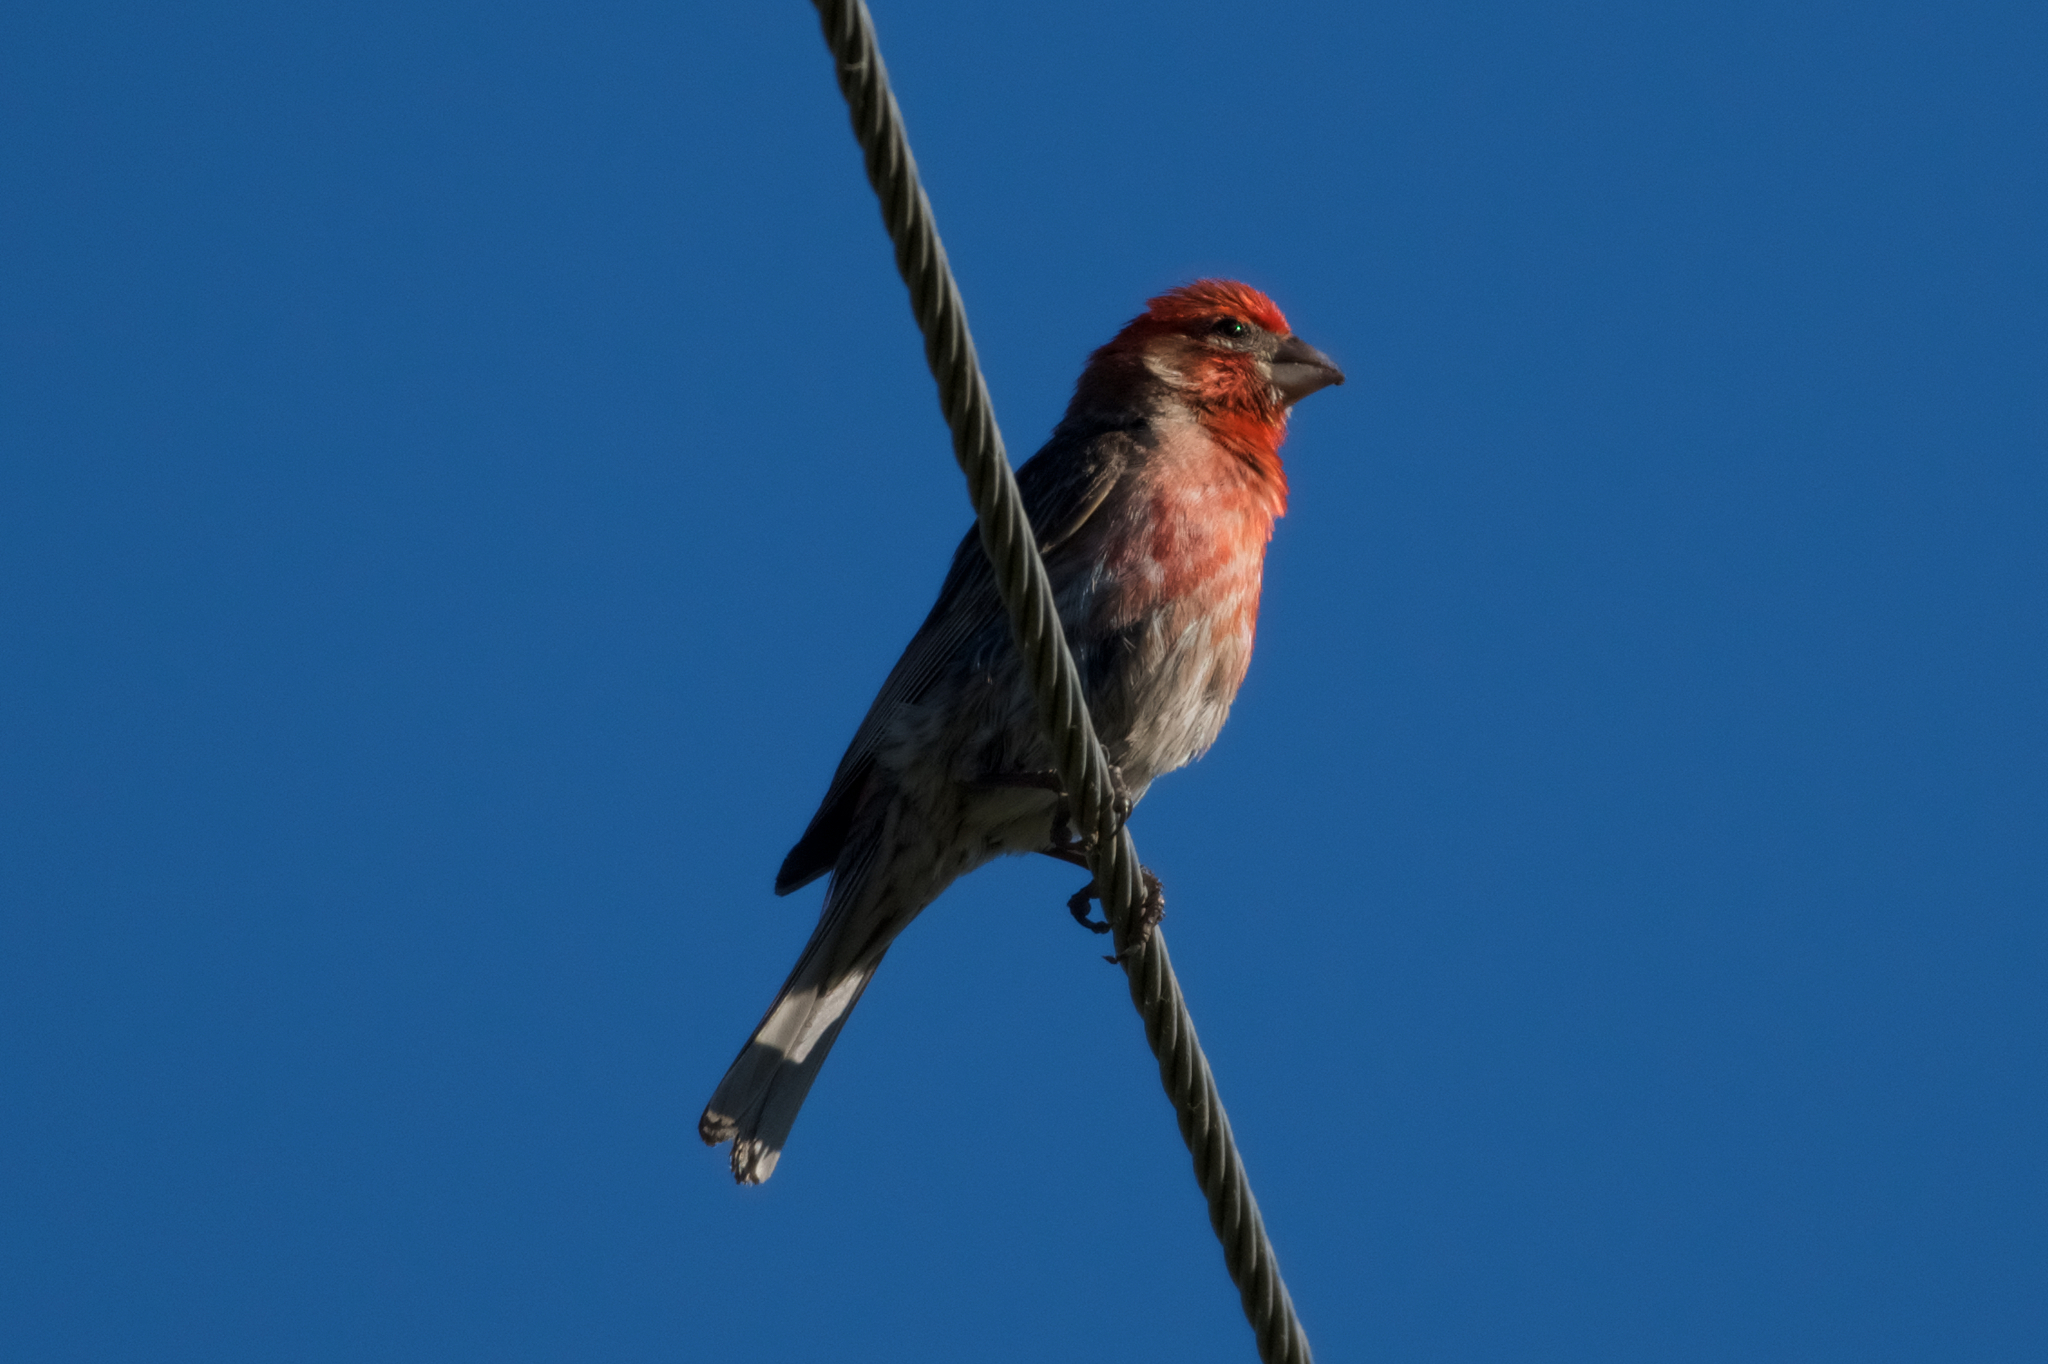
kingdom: Animalia
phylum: Chordata
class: Aves
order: Passeriformes
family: Fringillidae
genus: Haemorhous
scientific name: Haemorhous mexicanus
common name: House finch
